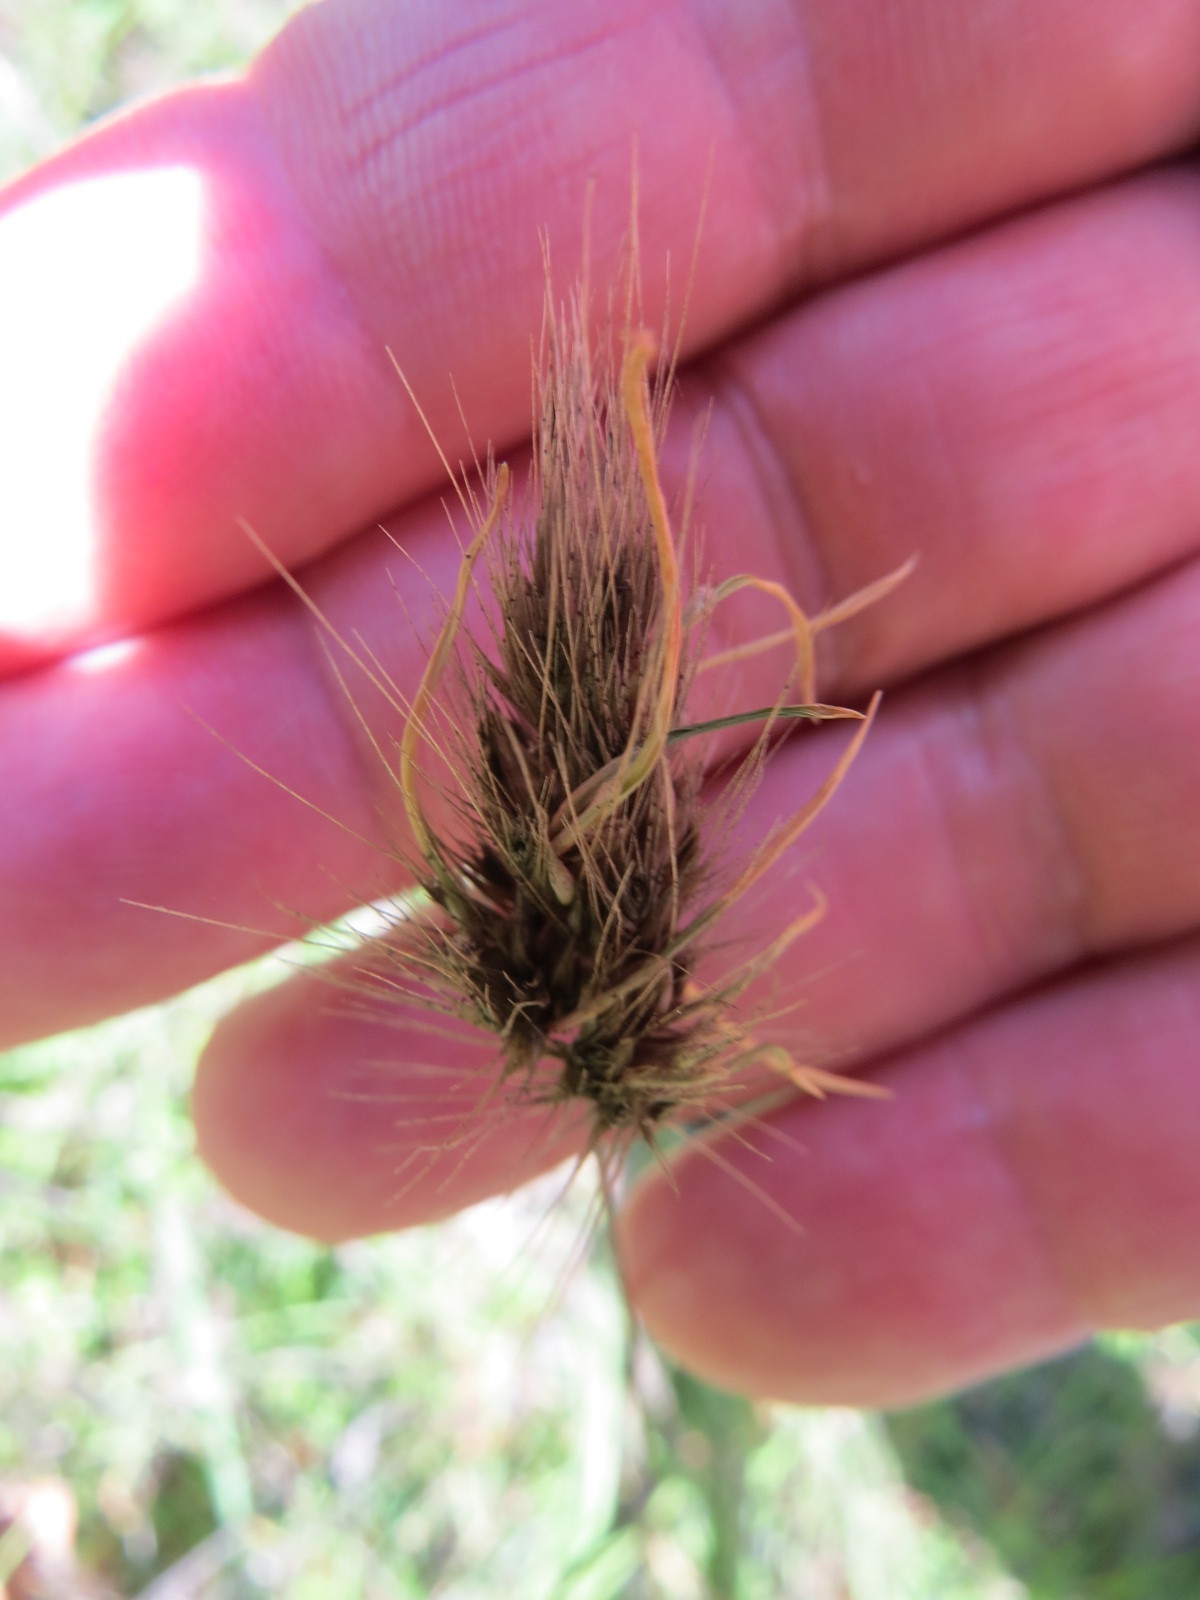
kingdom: Plantae
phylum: Tracheophyta
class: Liliopsida
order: Poales
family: Poaceae
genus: Cynosurus
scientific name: Cynosurus echinatus
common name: Rough dog's-tail
